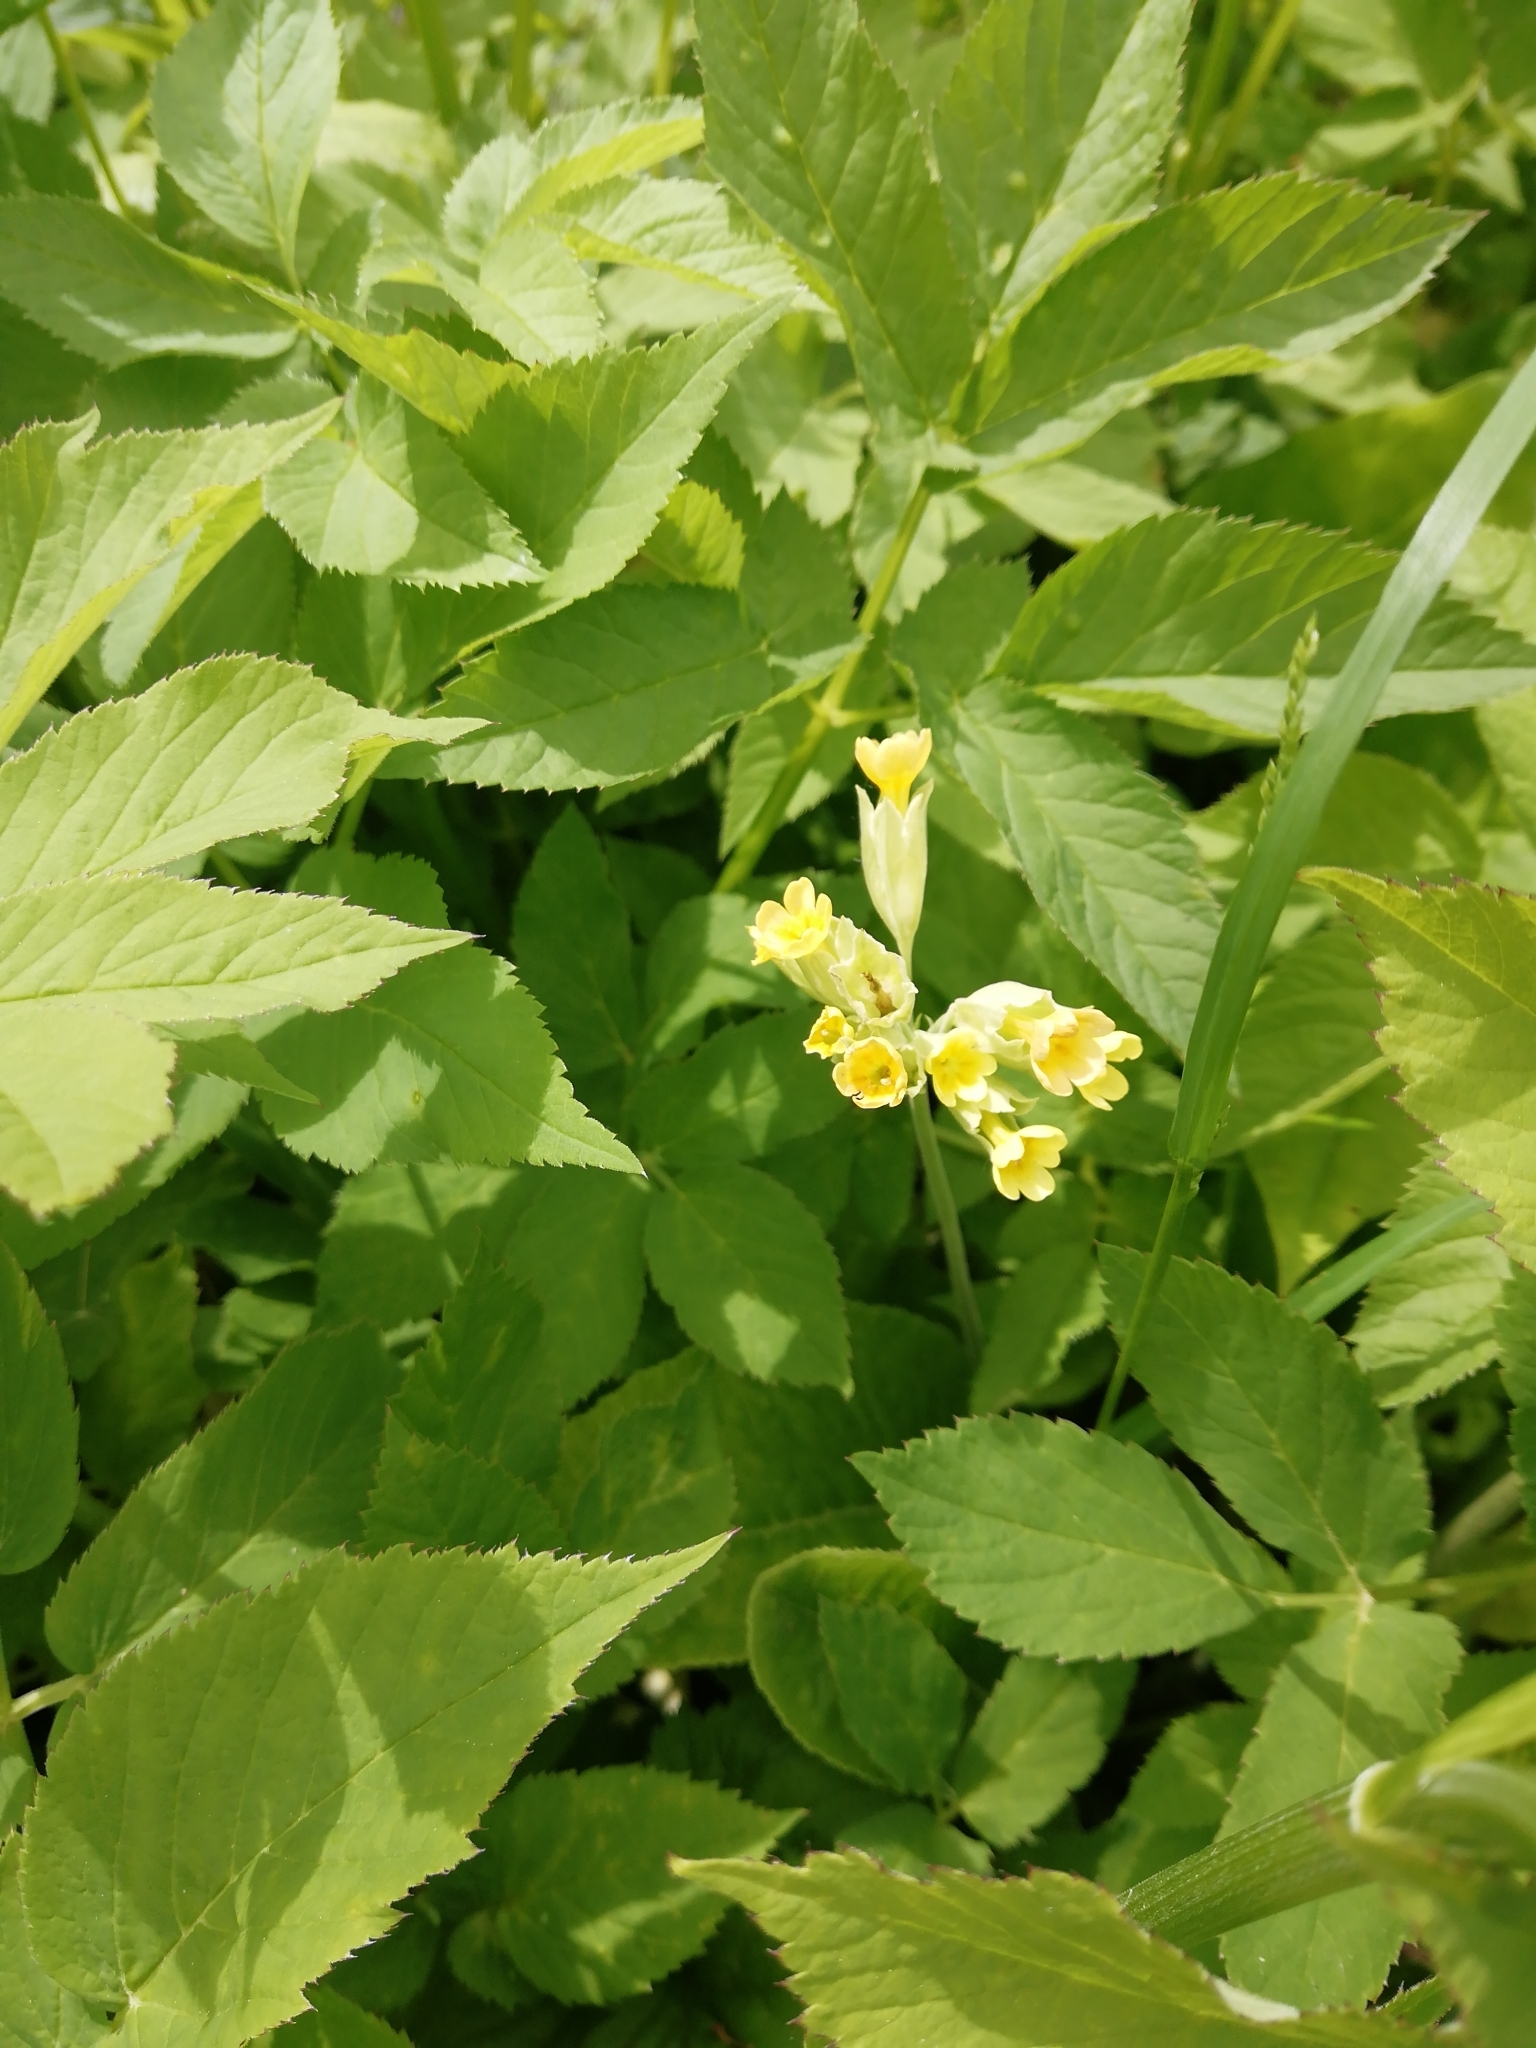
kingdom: Plantae
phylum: Tracheophyta
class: Magnoliopsida
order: Ericales
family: Primulaceae
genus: Primula
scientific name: Primula veris
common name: Cowslip
